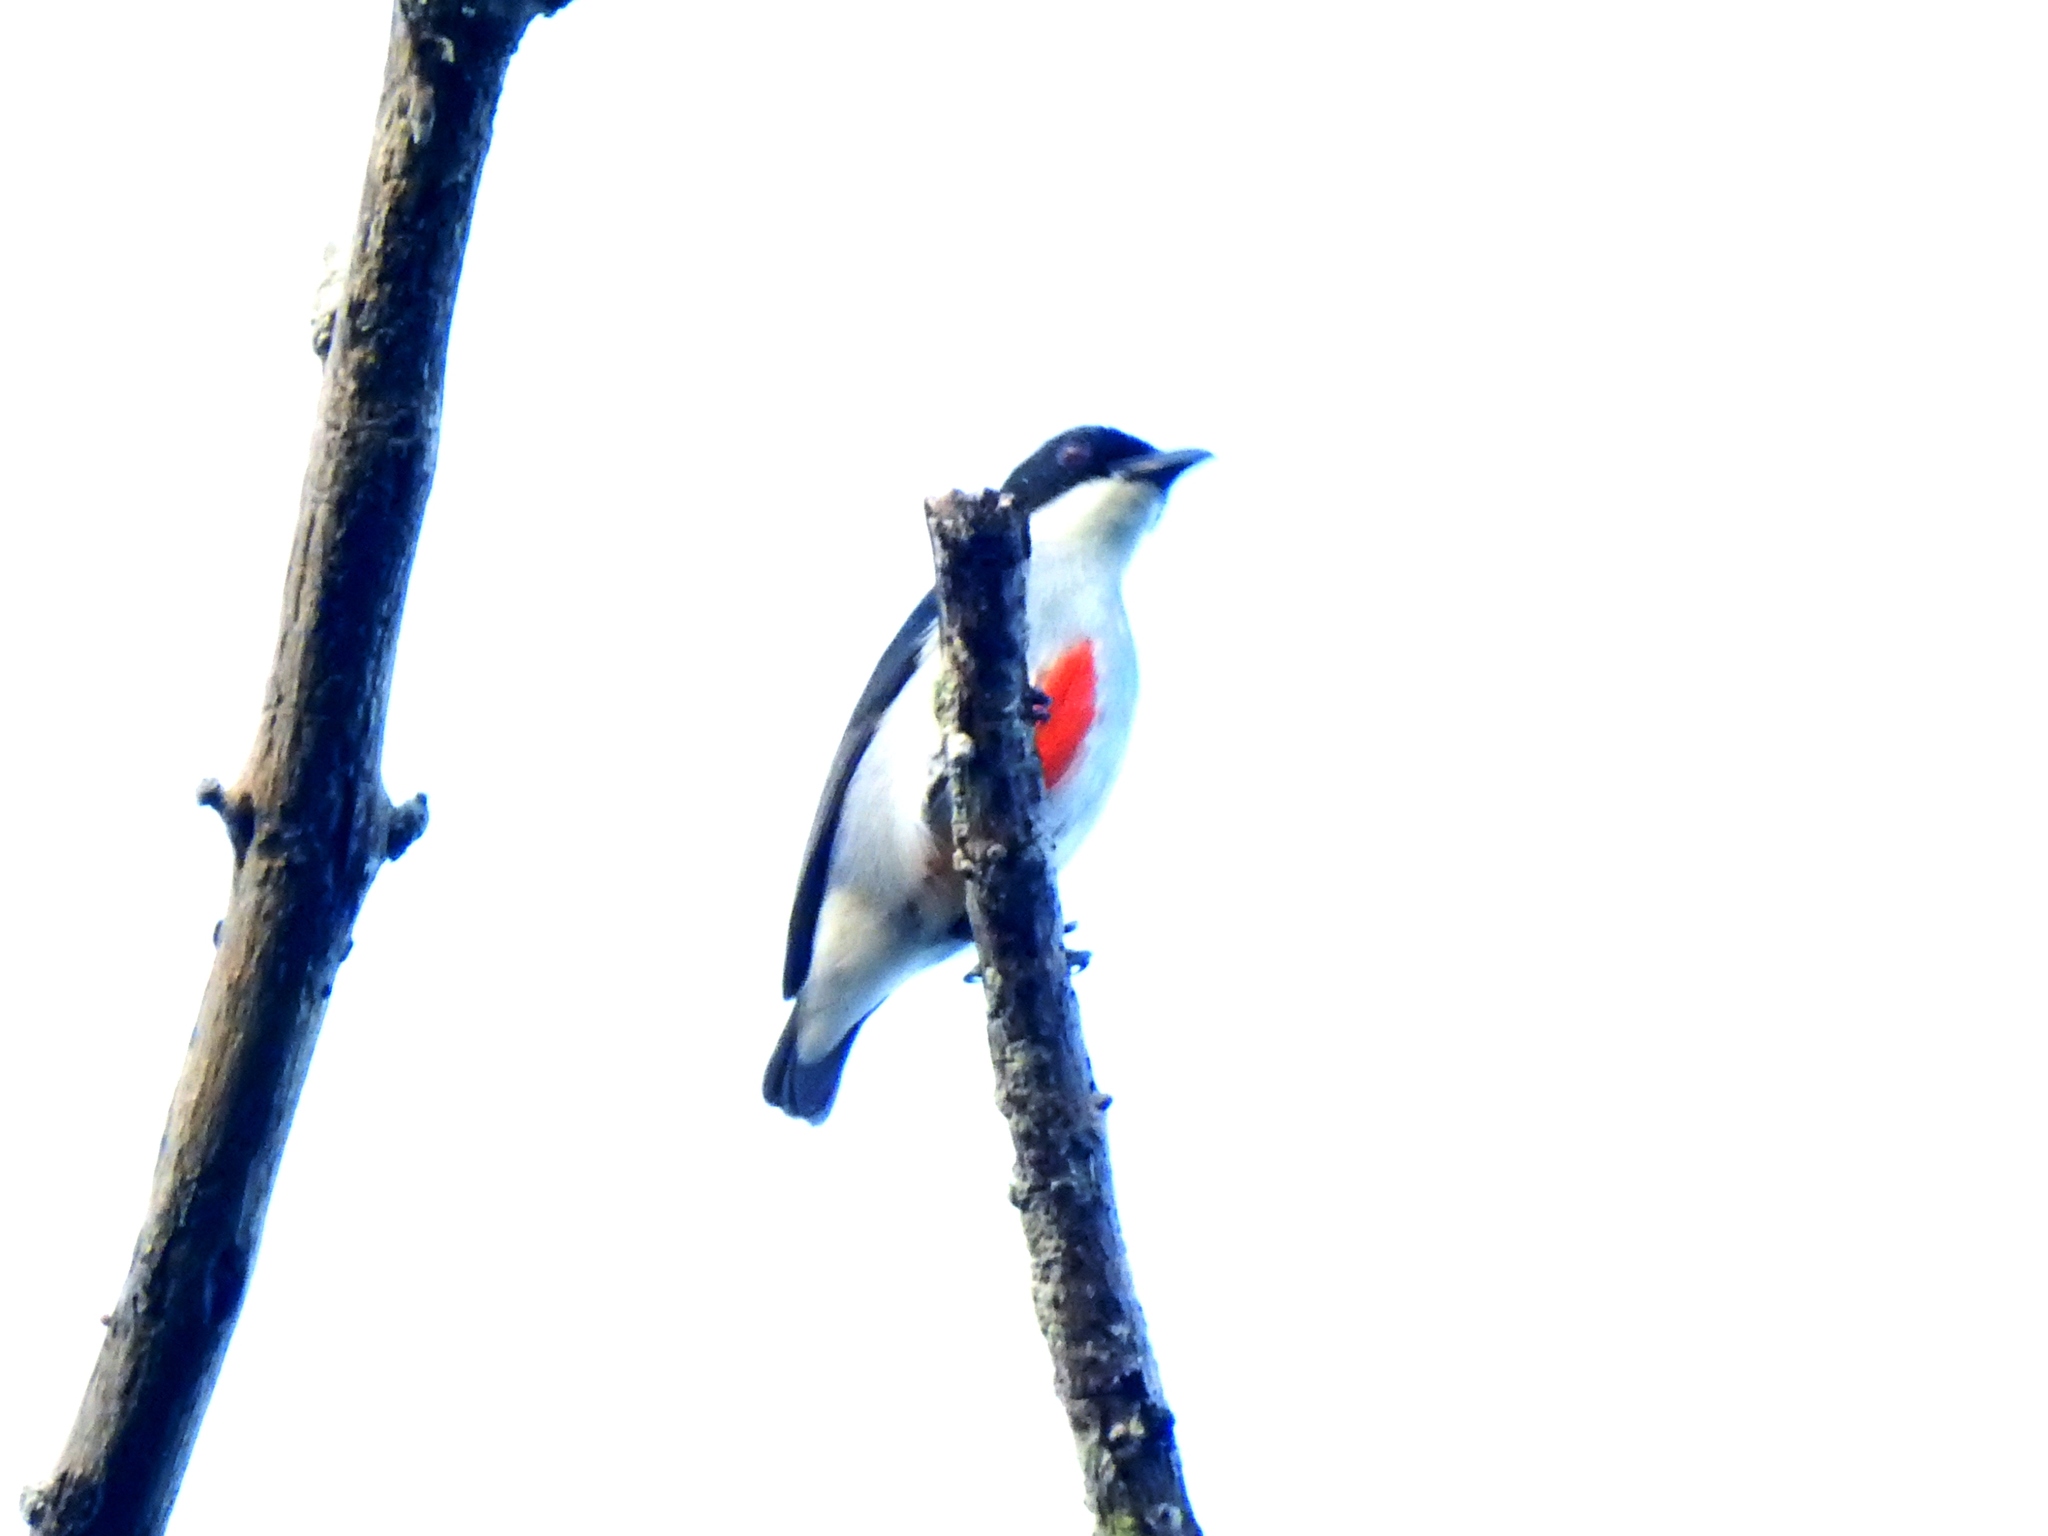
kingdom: Animalia
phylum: Chordata
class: Aves
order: Passeriformes
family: Dicaeidae
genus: Dicaeum
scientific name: Dicaeum australe
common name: Red-keeled flowerpecker
